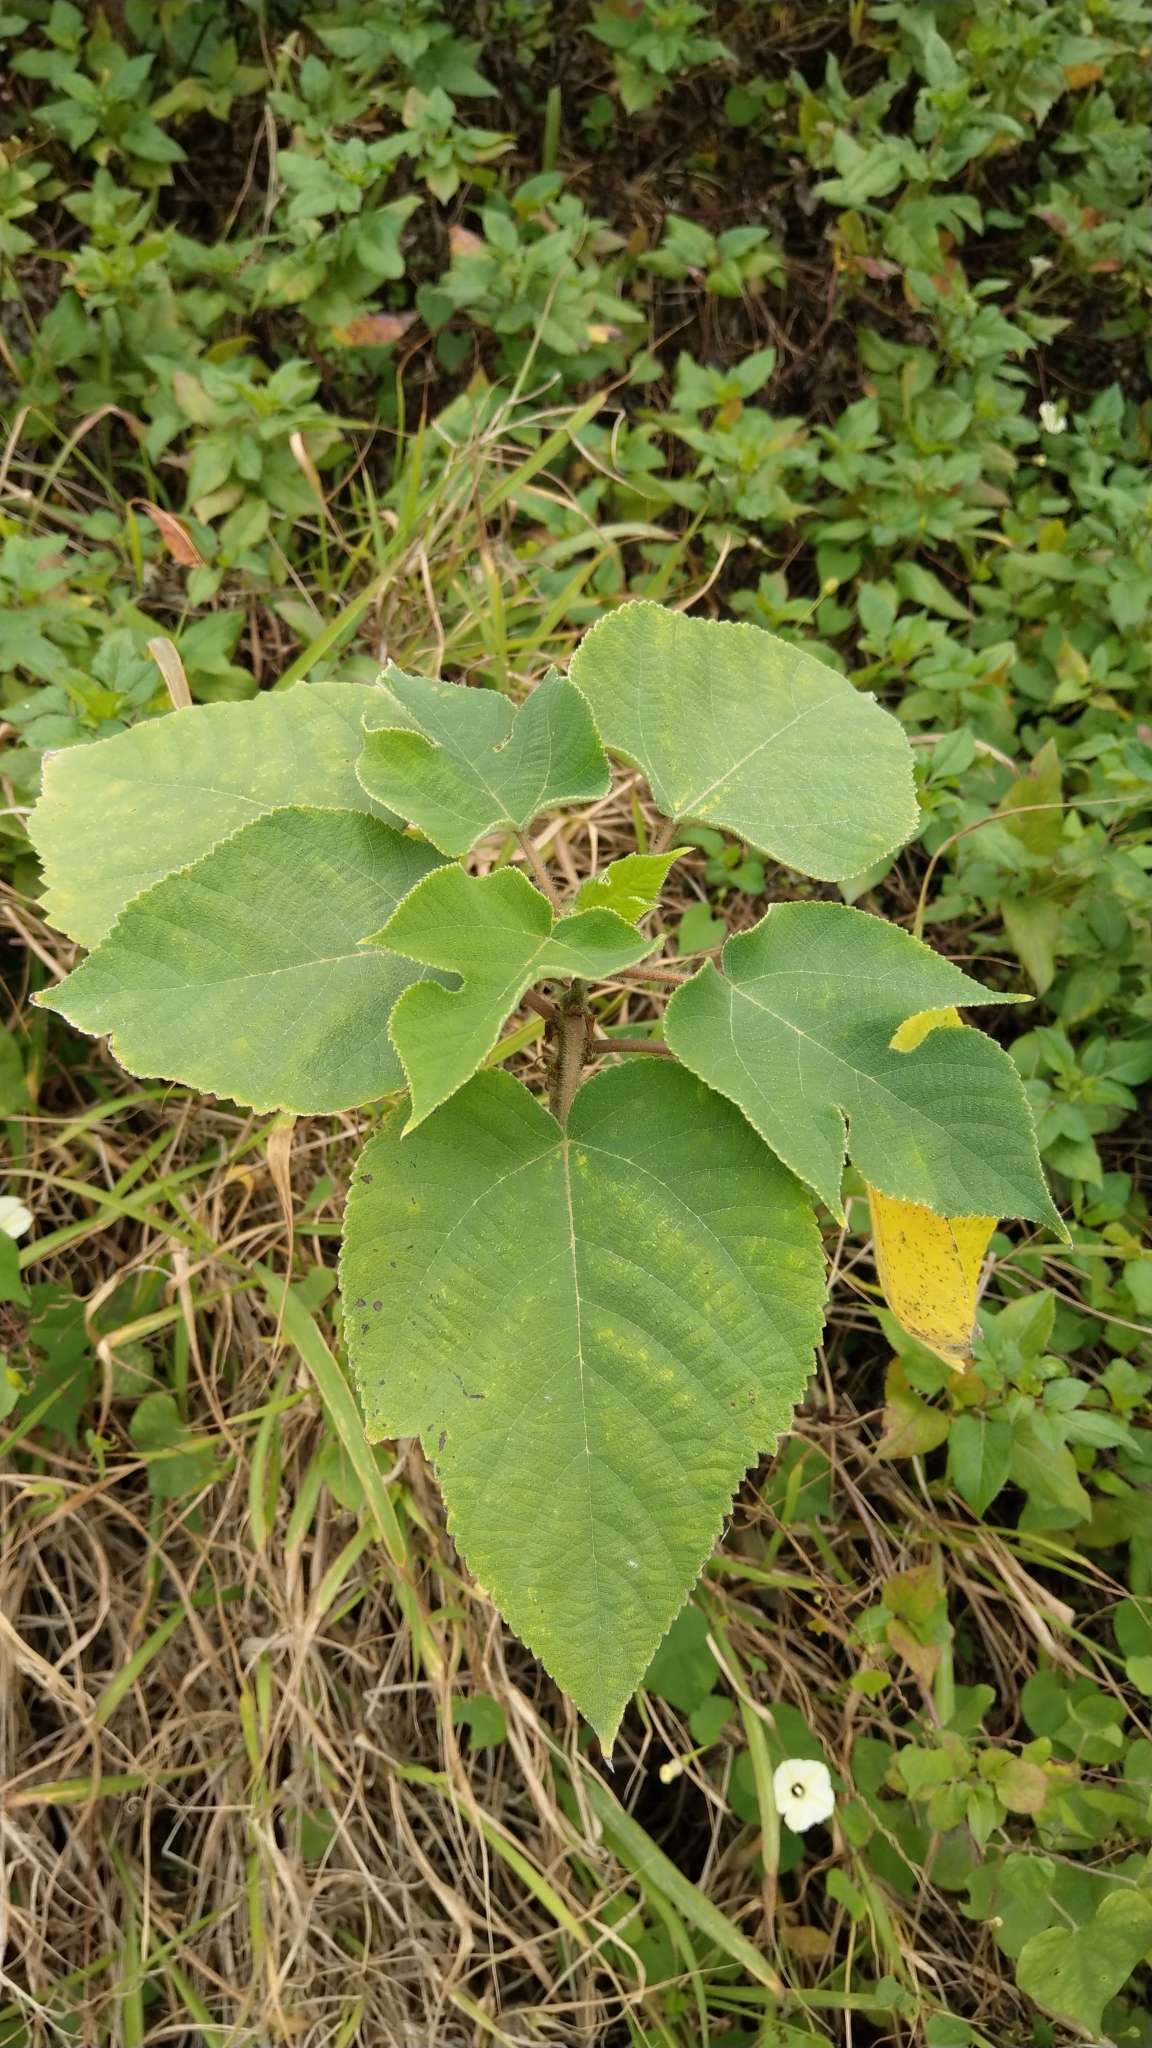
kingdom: Plantae
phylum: Tracheophyta
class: Magnoliopsida
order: Rosales
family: Moraceae
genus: Broussonetia
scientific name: Broussonetia papyrifera
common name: Paper mulberry
